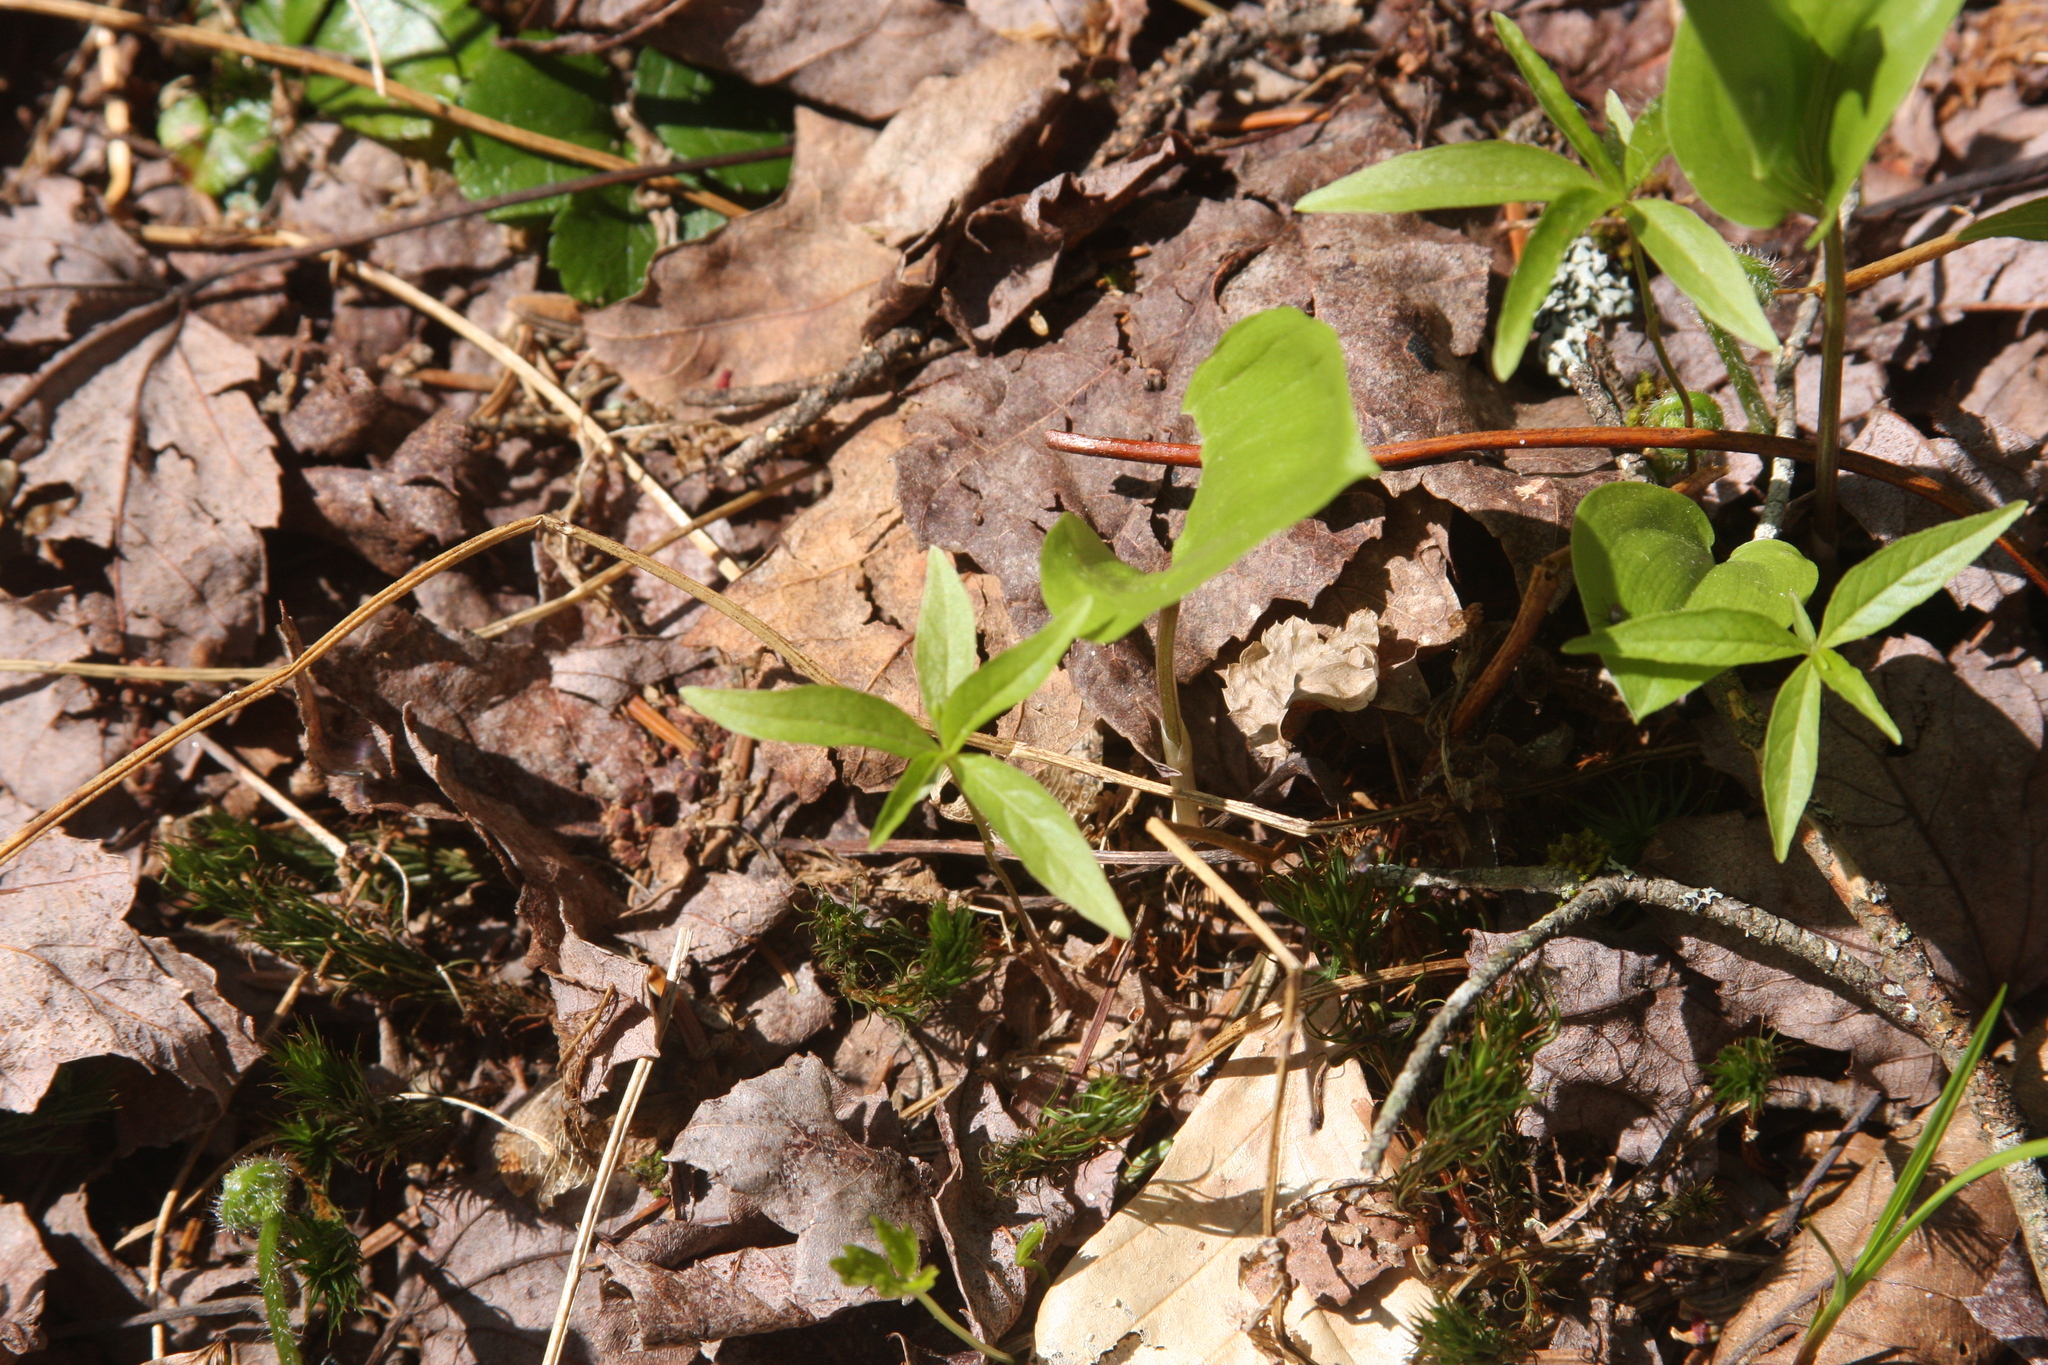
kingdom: Plantae
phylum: Tracheophyta
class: Magnoliopsida
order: Ericales
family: Primulaceae
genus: Lysimachia
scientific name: Lysimachia borealis
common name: American starflower
